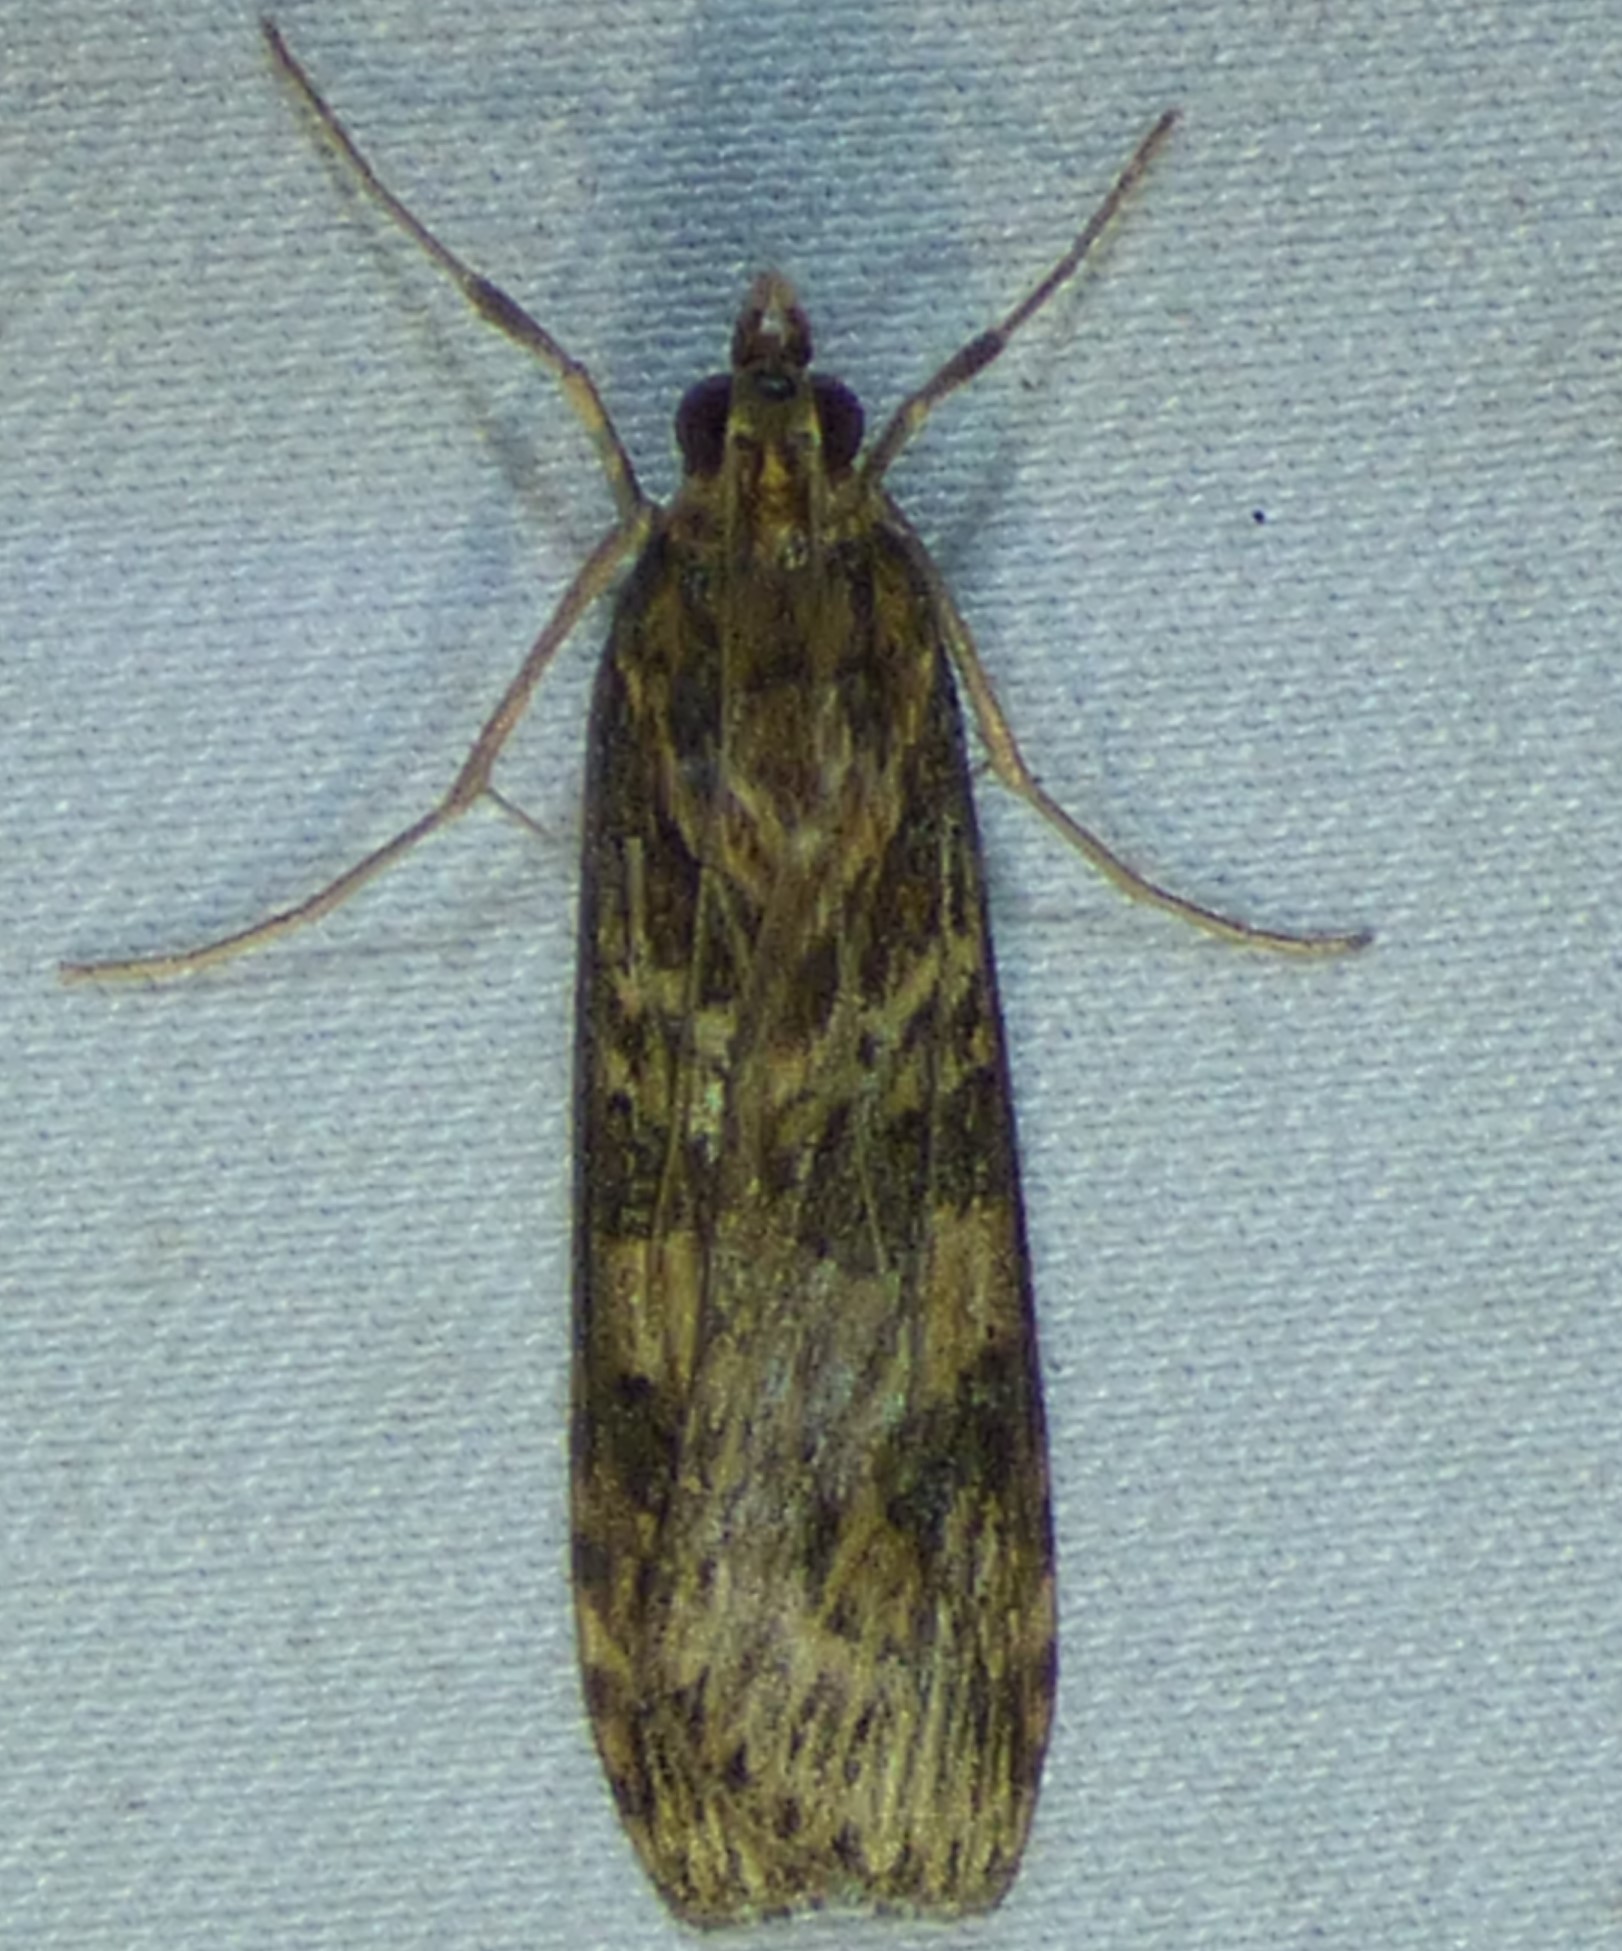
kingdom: Animalia
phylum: Arthropoda
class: Insecta
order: Lepidoptera
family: Crambidae
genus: Nomophila
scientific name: Nomophila nearctica
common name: American rush veneer
